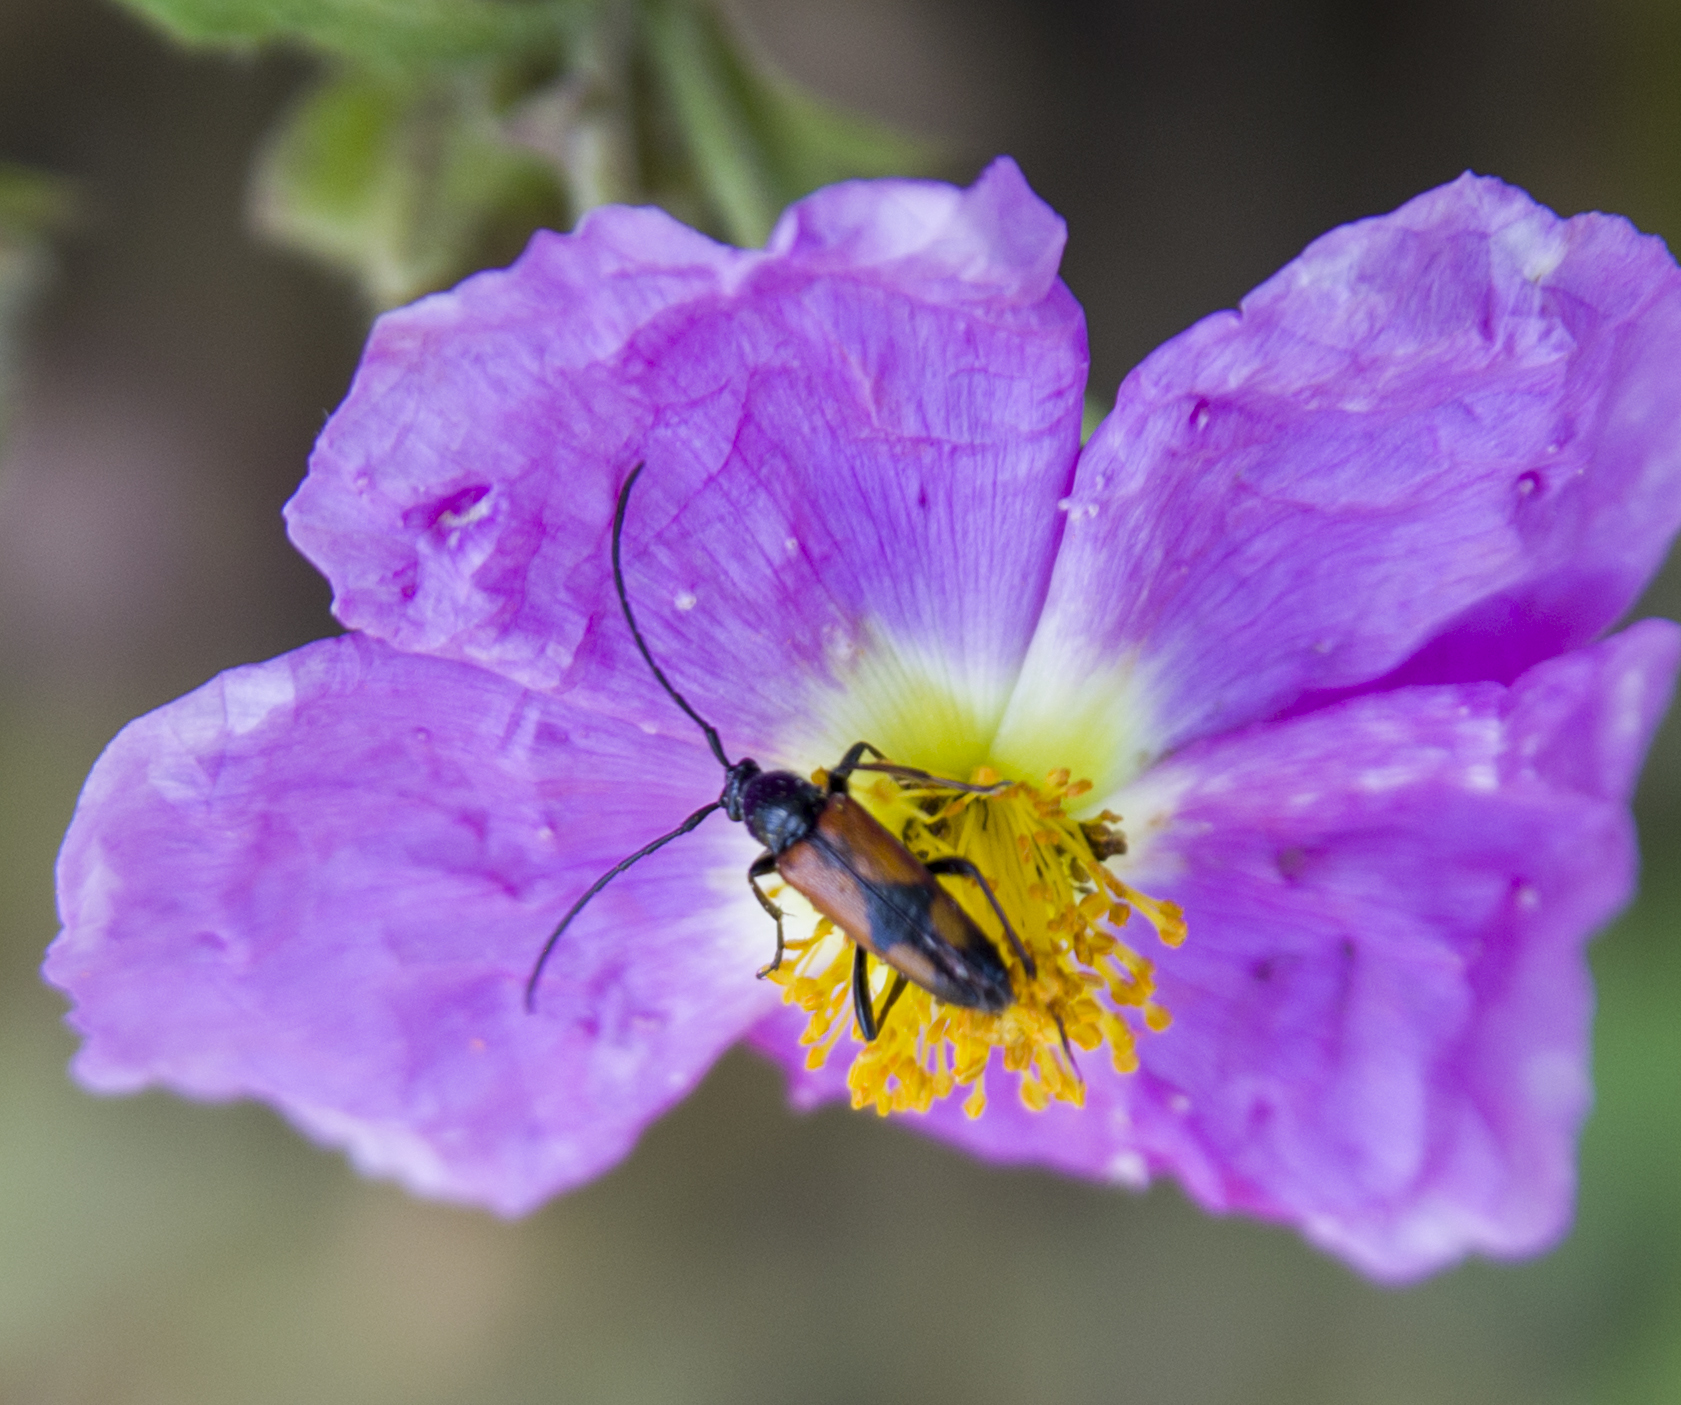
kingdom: Animalia
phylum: Arthropoda
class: Insecta
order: Coleoptera
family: Cerambycidae
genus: Stenurella
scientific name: Stenurella bifasciata
